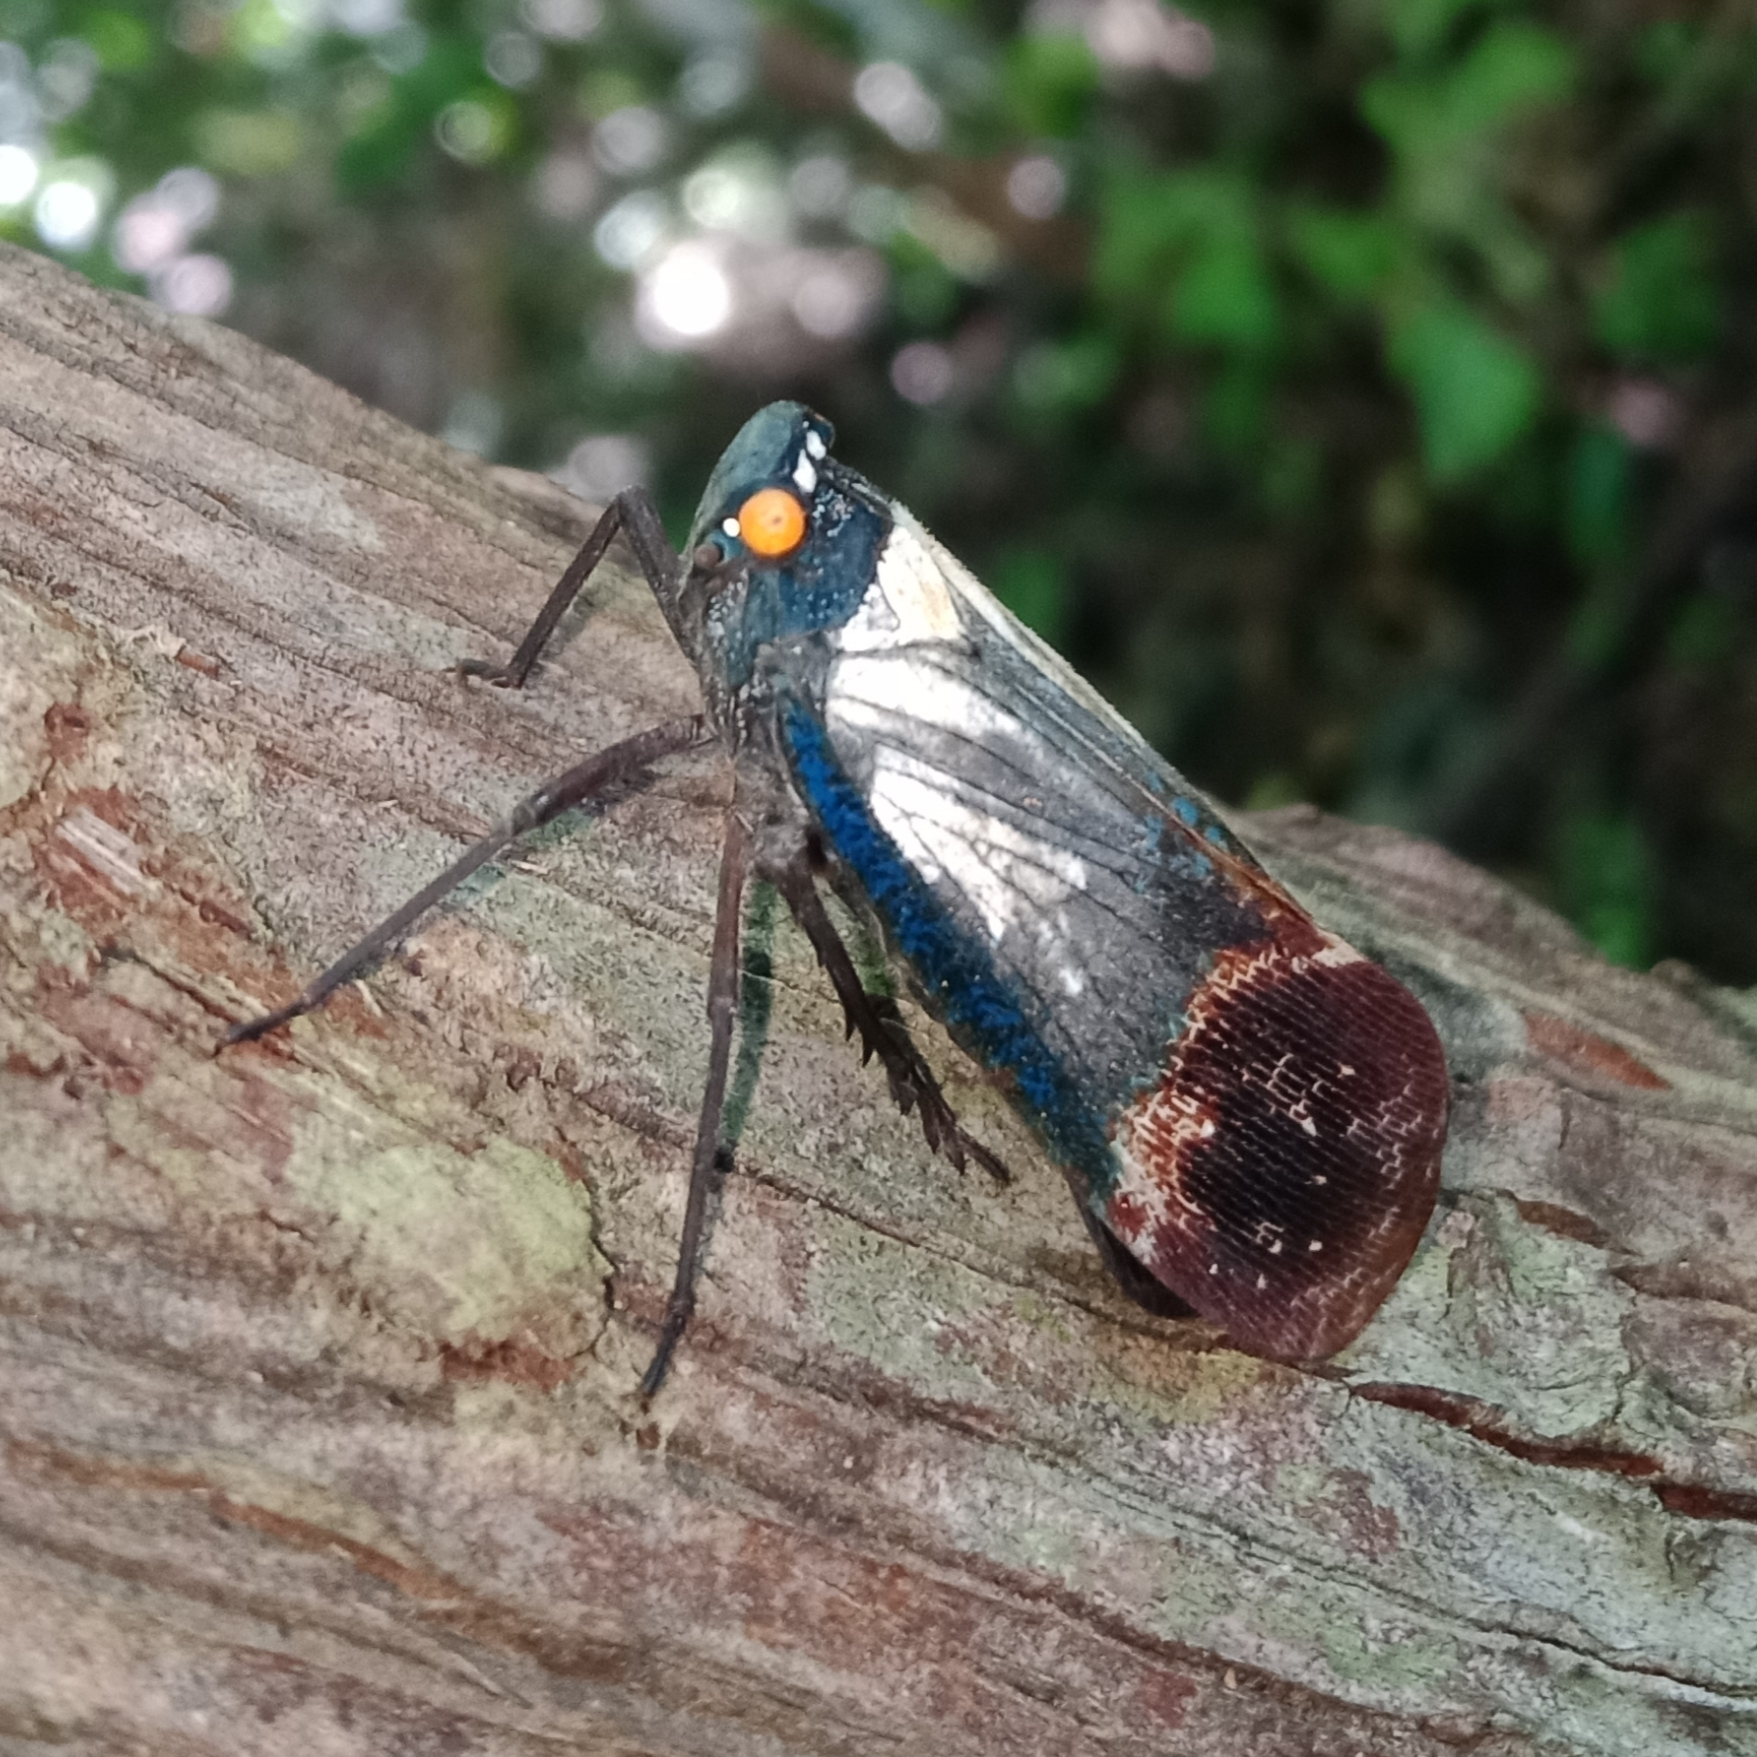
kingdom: Animalia
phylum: Arthropoda
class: Insecta
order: Hemiptera
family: Fulgoridae
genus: Penthicodes
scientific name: Penthicodes farinosa
